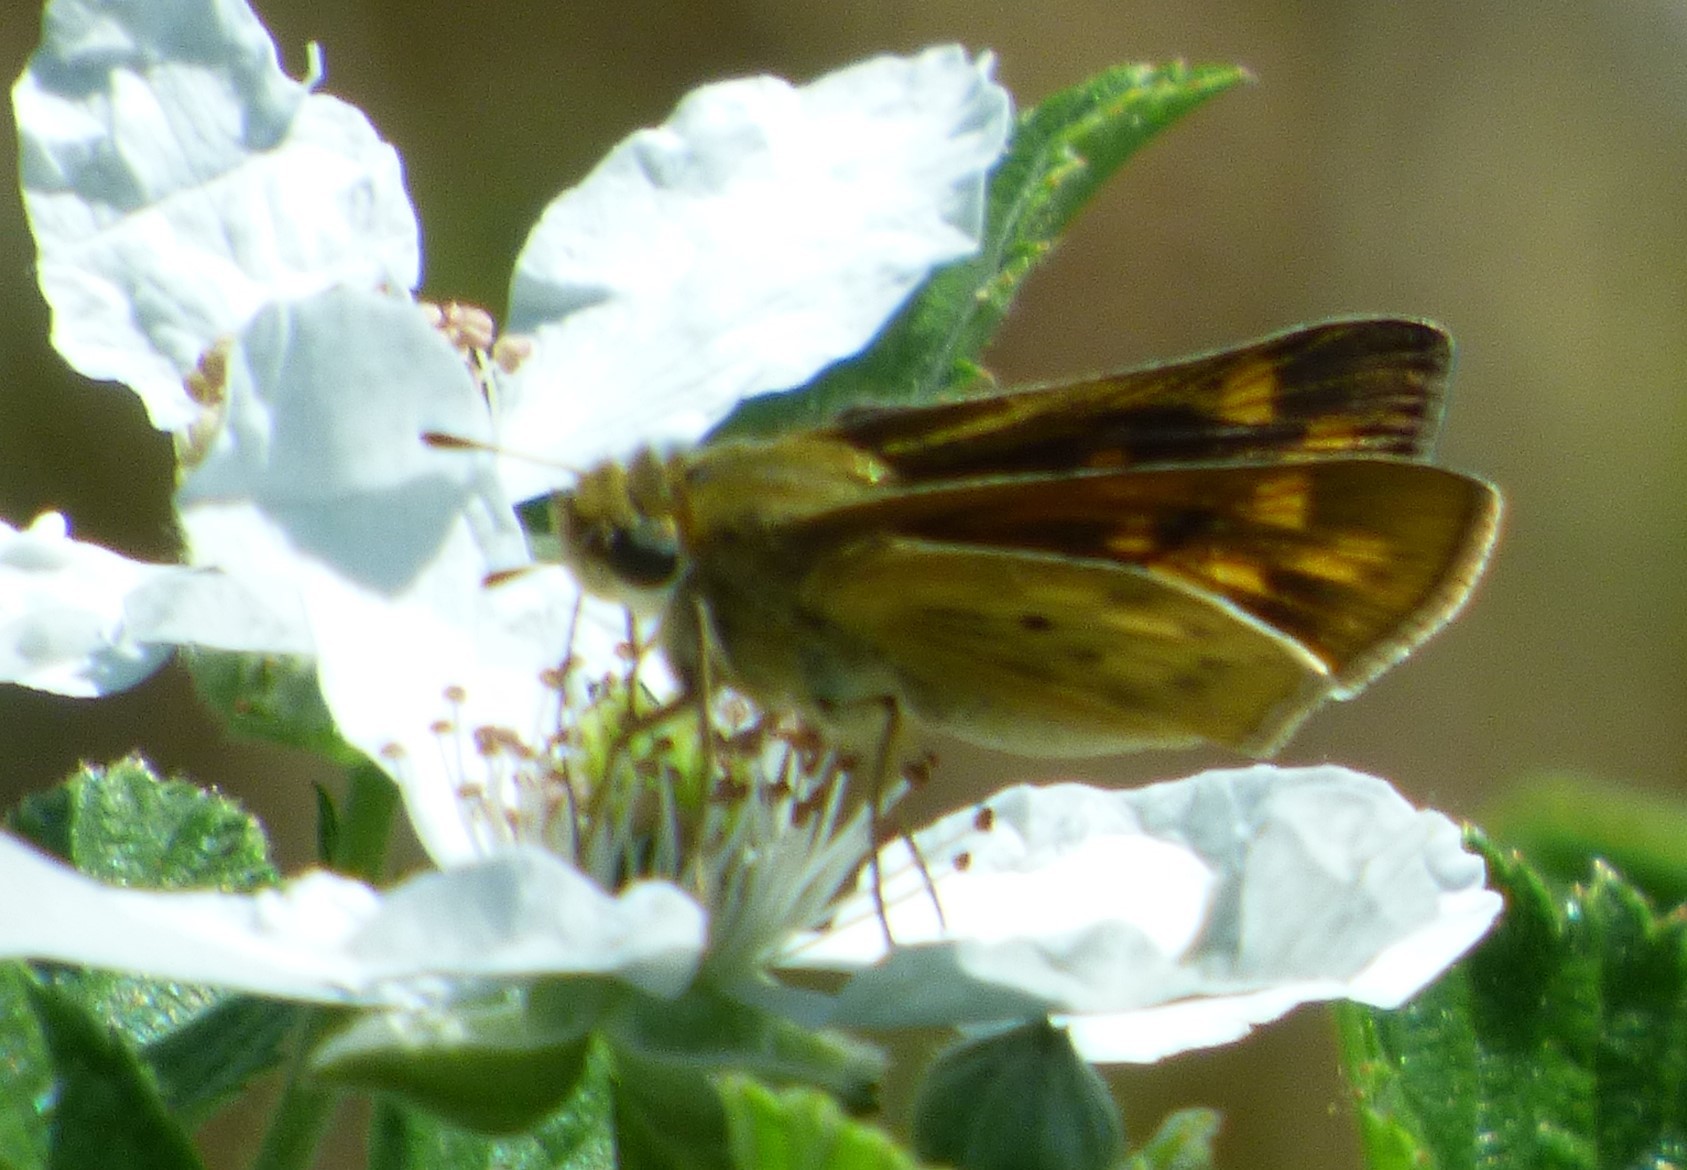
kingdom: Animalia
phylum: Arthropoda
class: Insecta
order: Lepidoptera
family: Hesperiidae
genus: Hylephila
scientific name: Hylephila phyleus
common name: Fiery skipper
